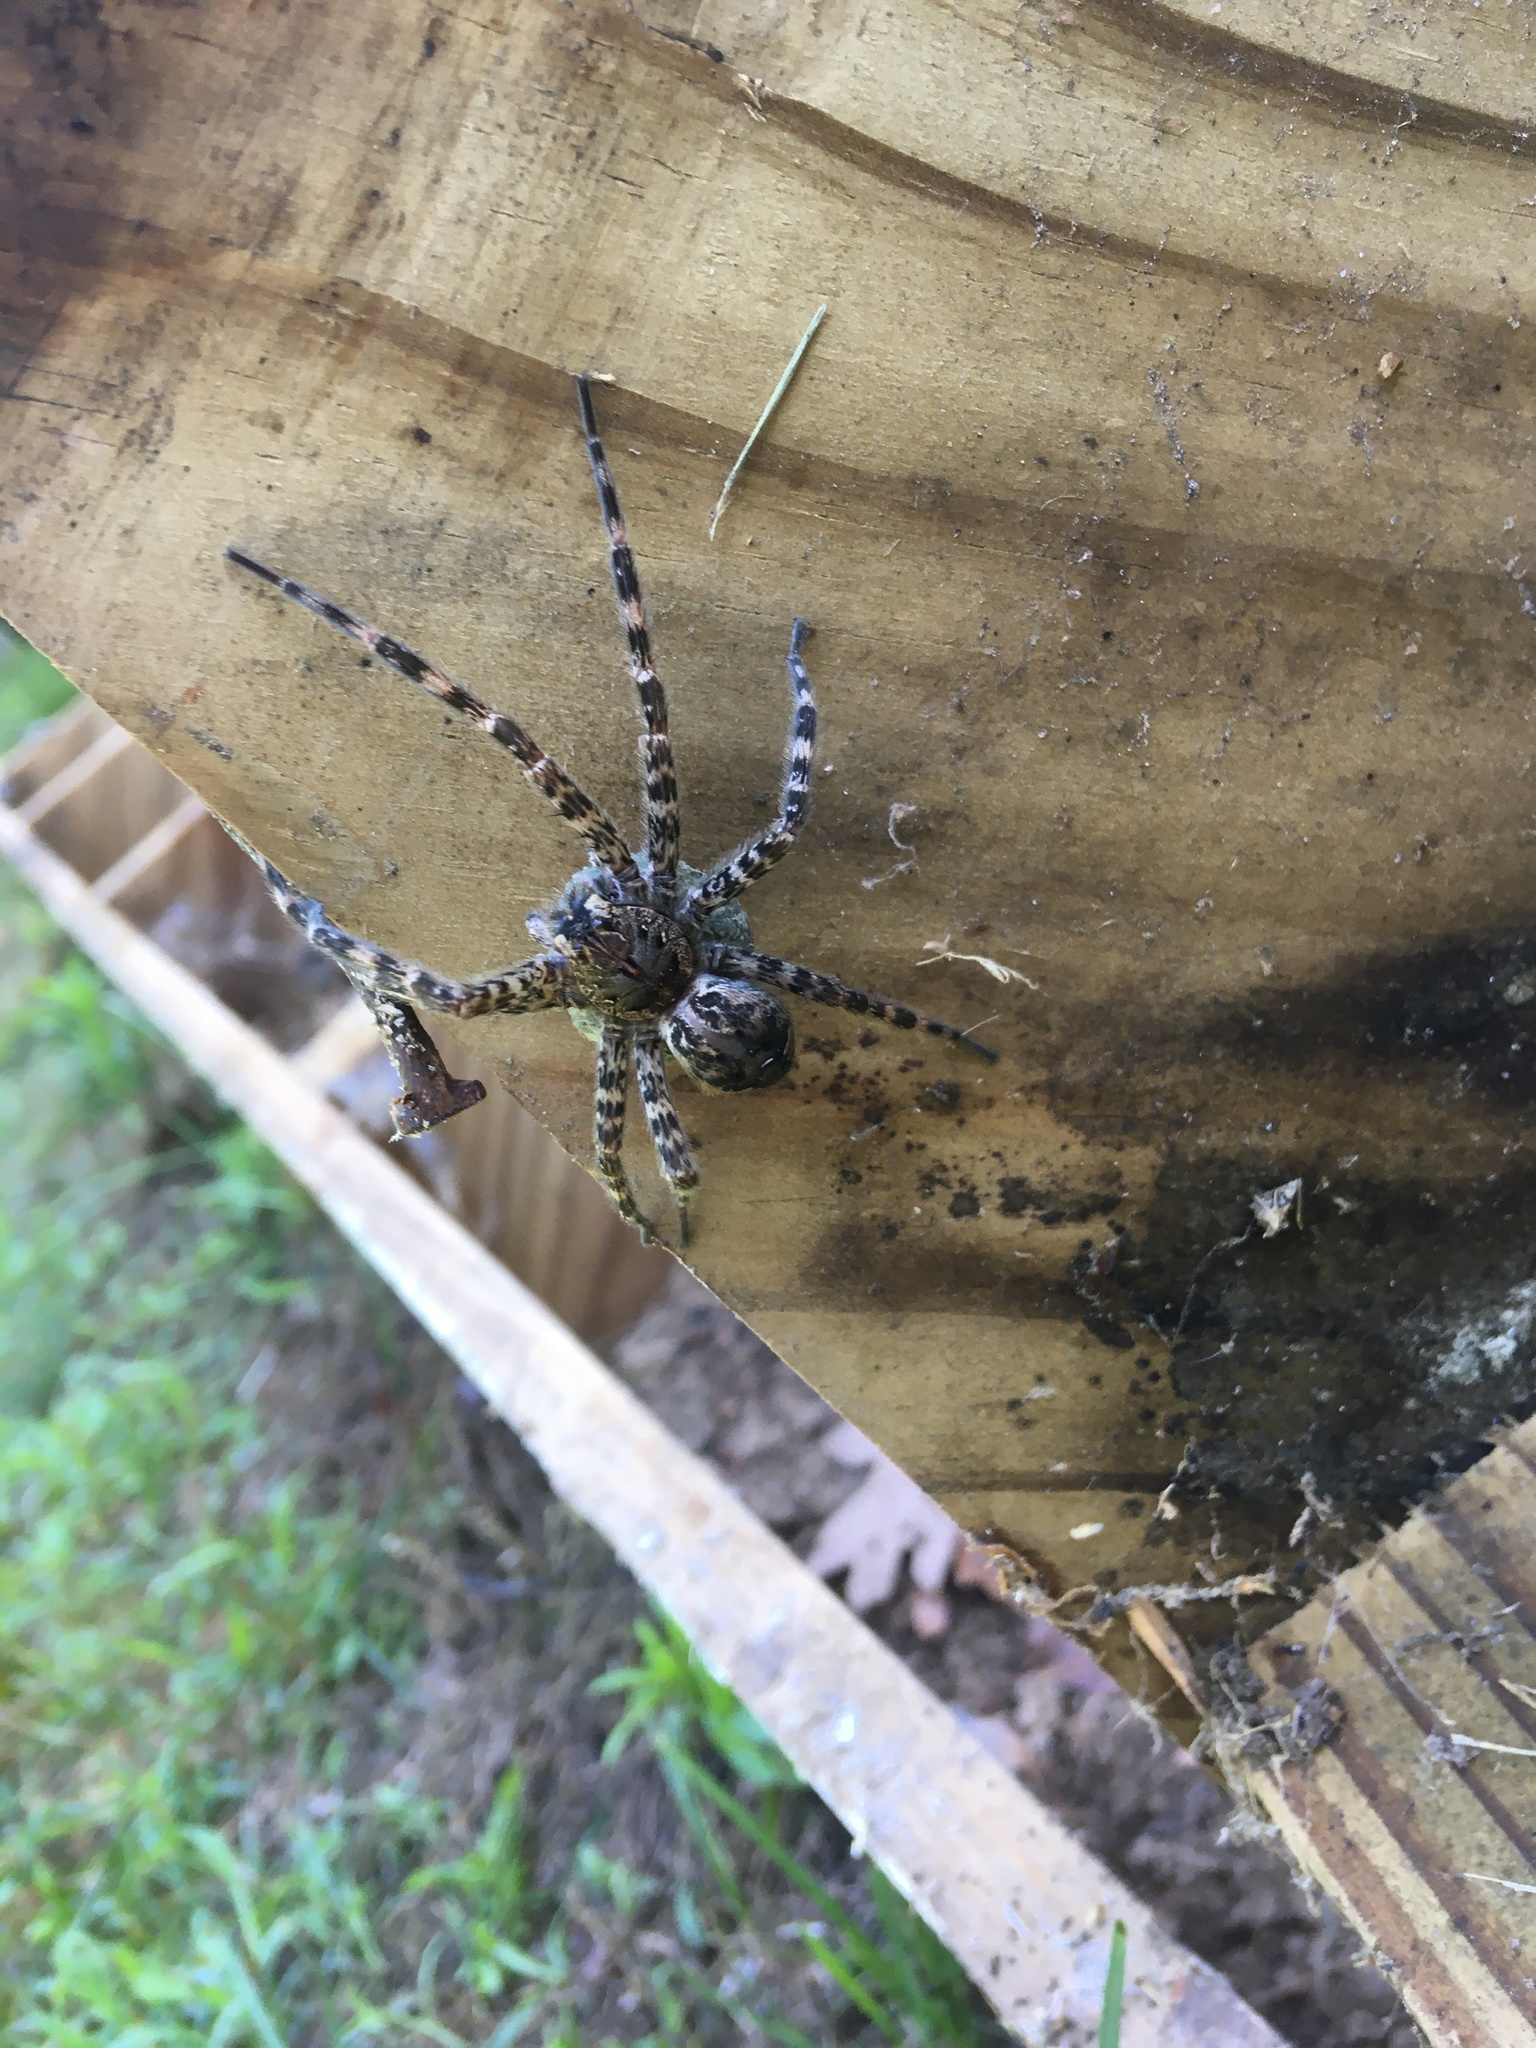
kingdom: Animalia
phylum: Arthropoda
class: Arachnida
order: Araneae
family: Pisauridae
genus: Dolomedes
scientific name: Dolomedes tenebrosus
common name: Dark fishing spider
